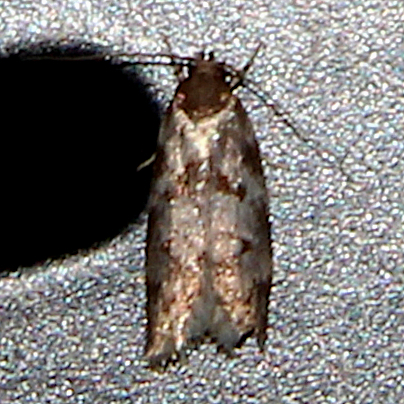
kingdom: Animalia
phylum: Arthropoda
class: Insecta
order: Lepidoptera
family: Oecophoridae
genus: Tingena
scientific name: Tingena clarkei
